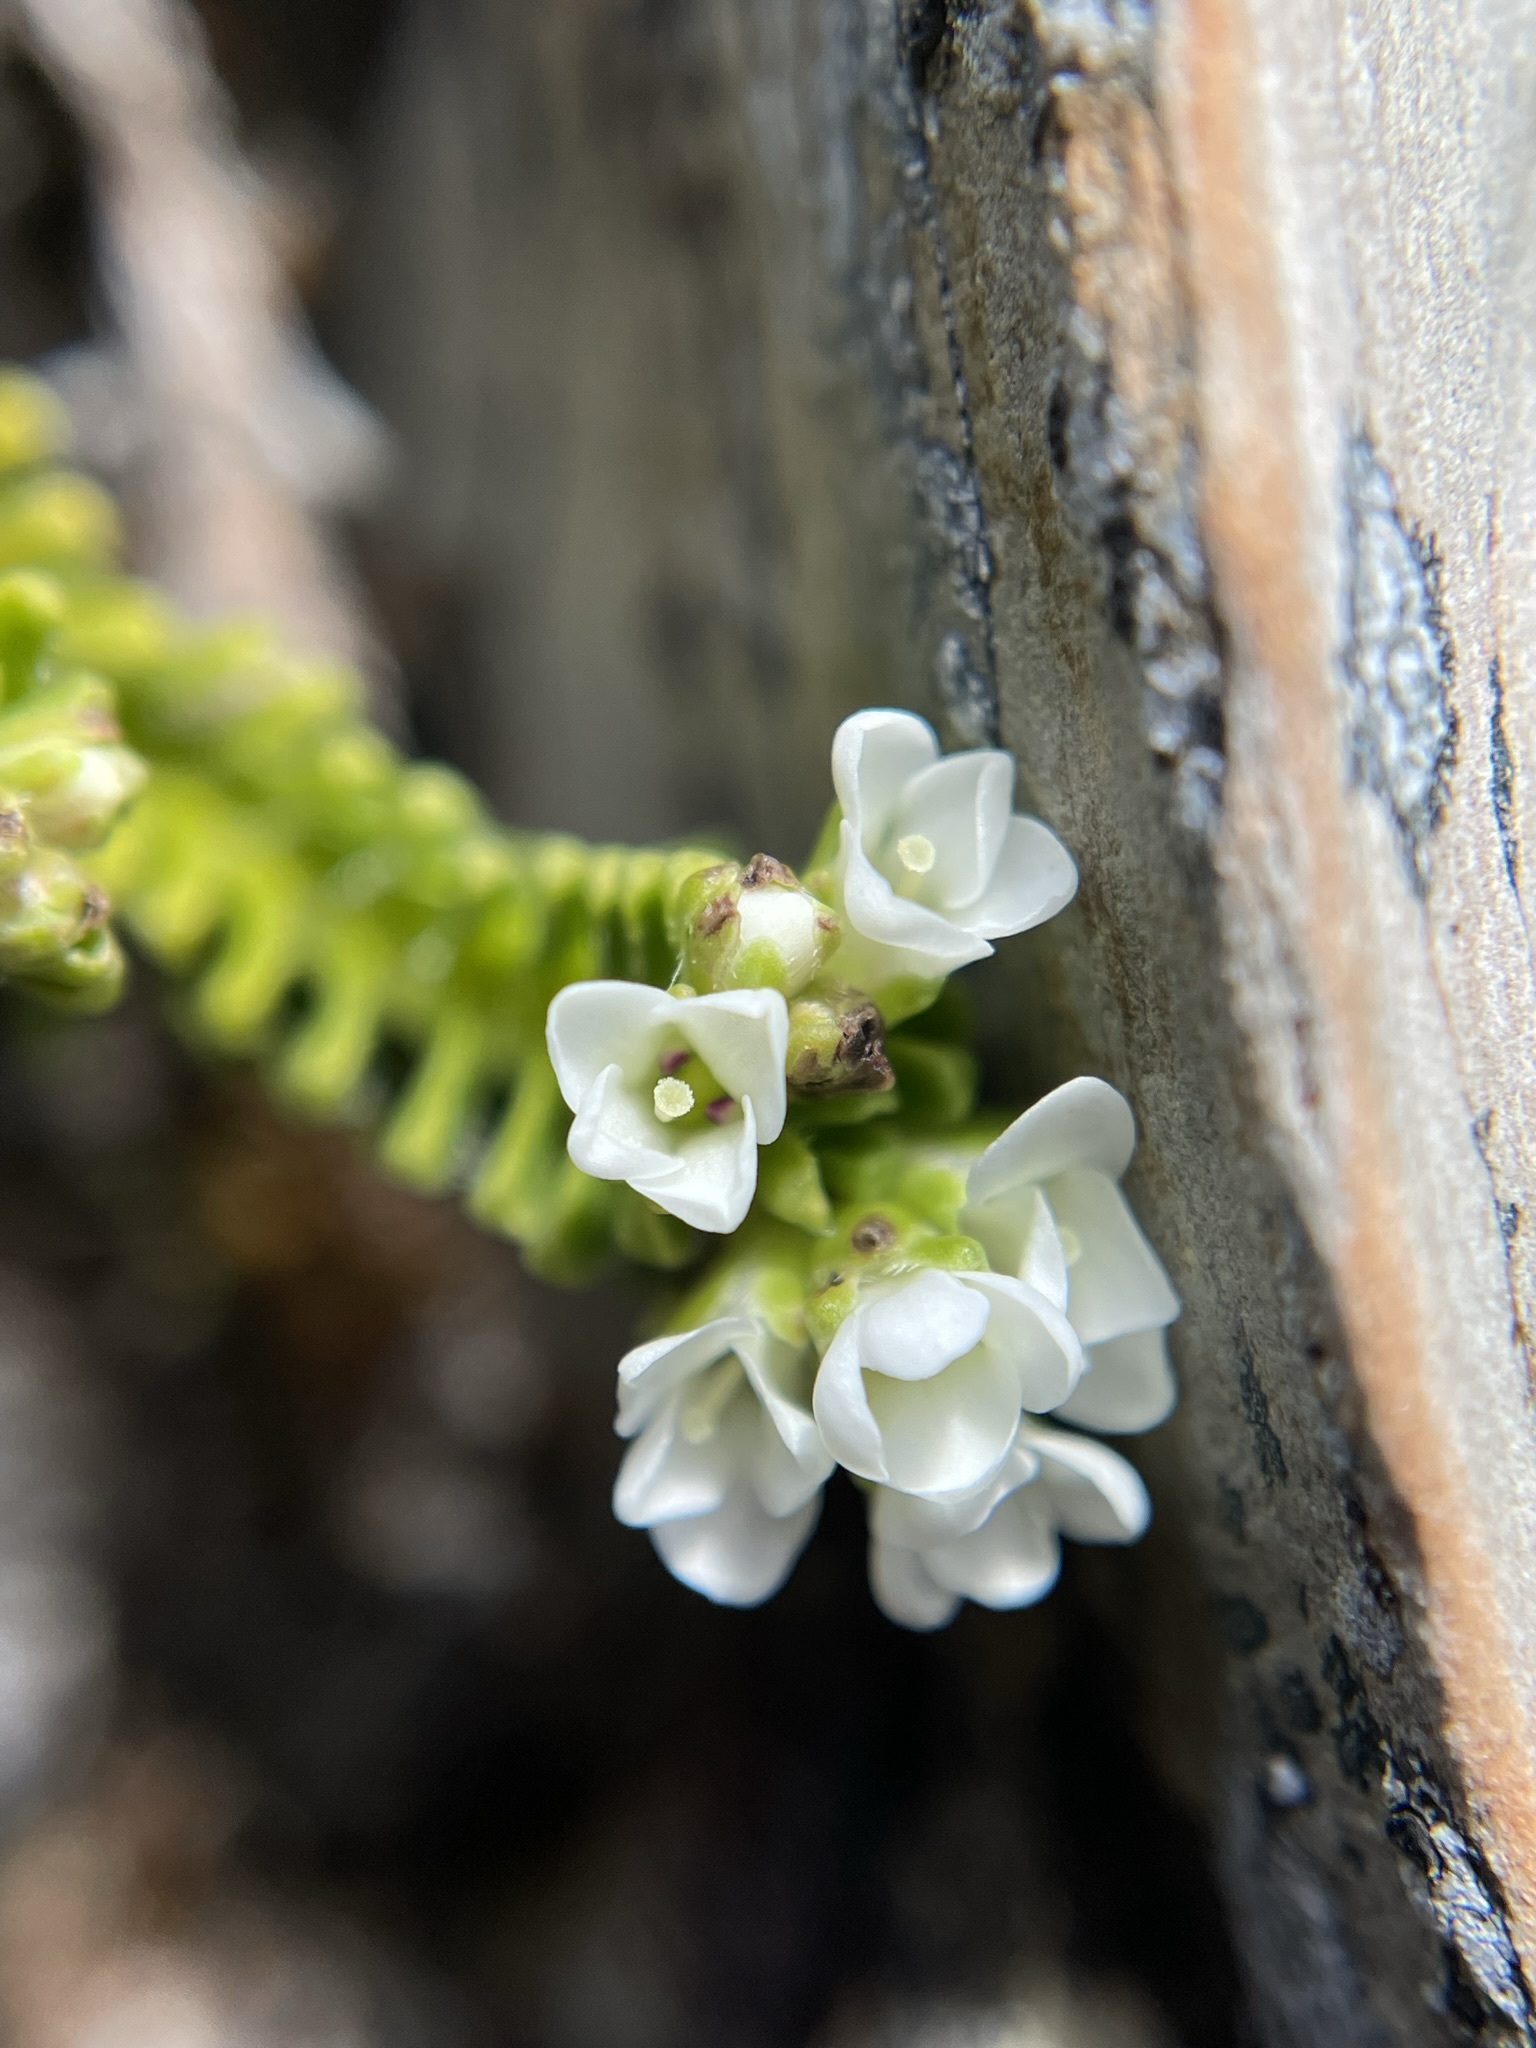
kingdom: Plantae
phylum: Tracheophyta
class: Magnoliopsida
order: Lamiales
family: Plantaginaceae
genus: Veronica
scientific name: Veronica hookeri
